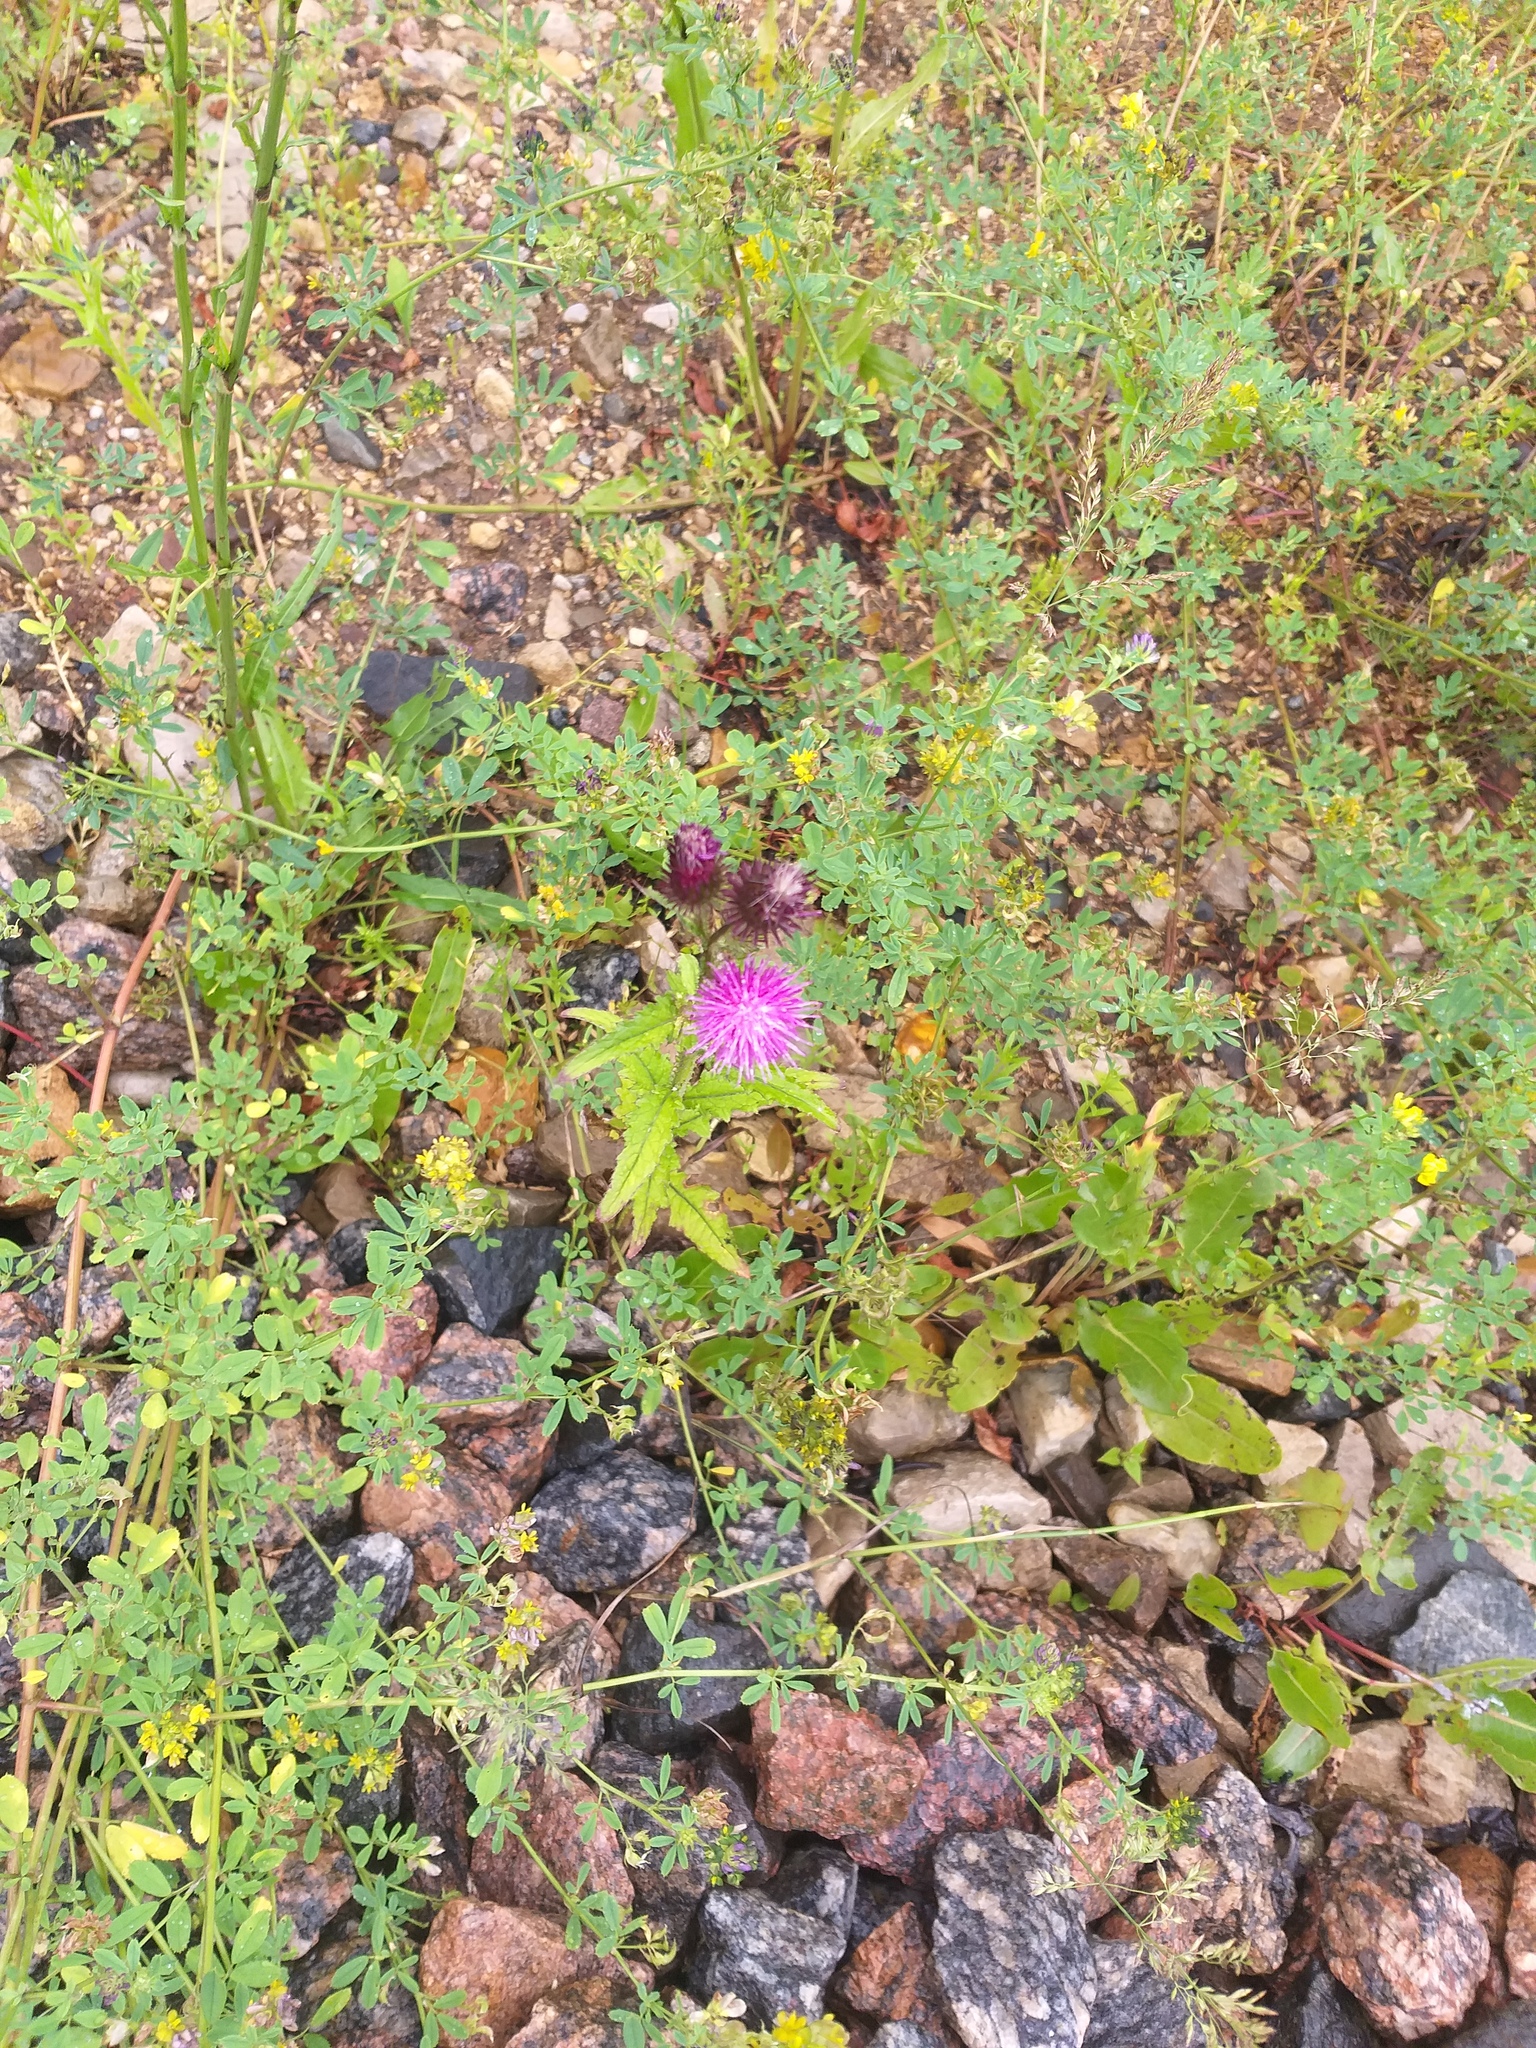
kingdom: Plantae
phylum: Tracheophyta
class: Magnoliopsida
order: Asterales
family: Asteraceae
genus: Carduus
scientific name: Carduus crispus
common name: Welted thistle
